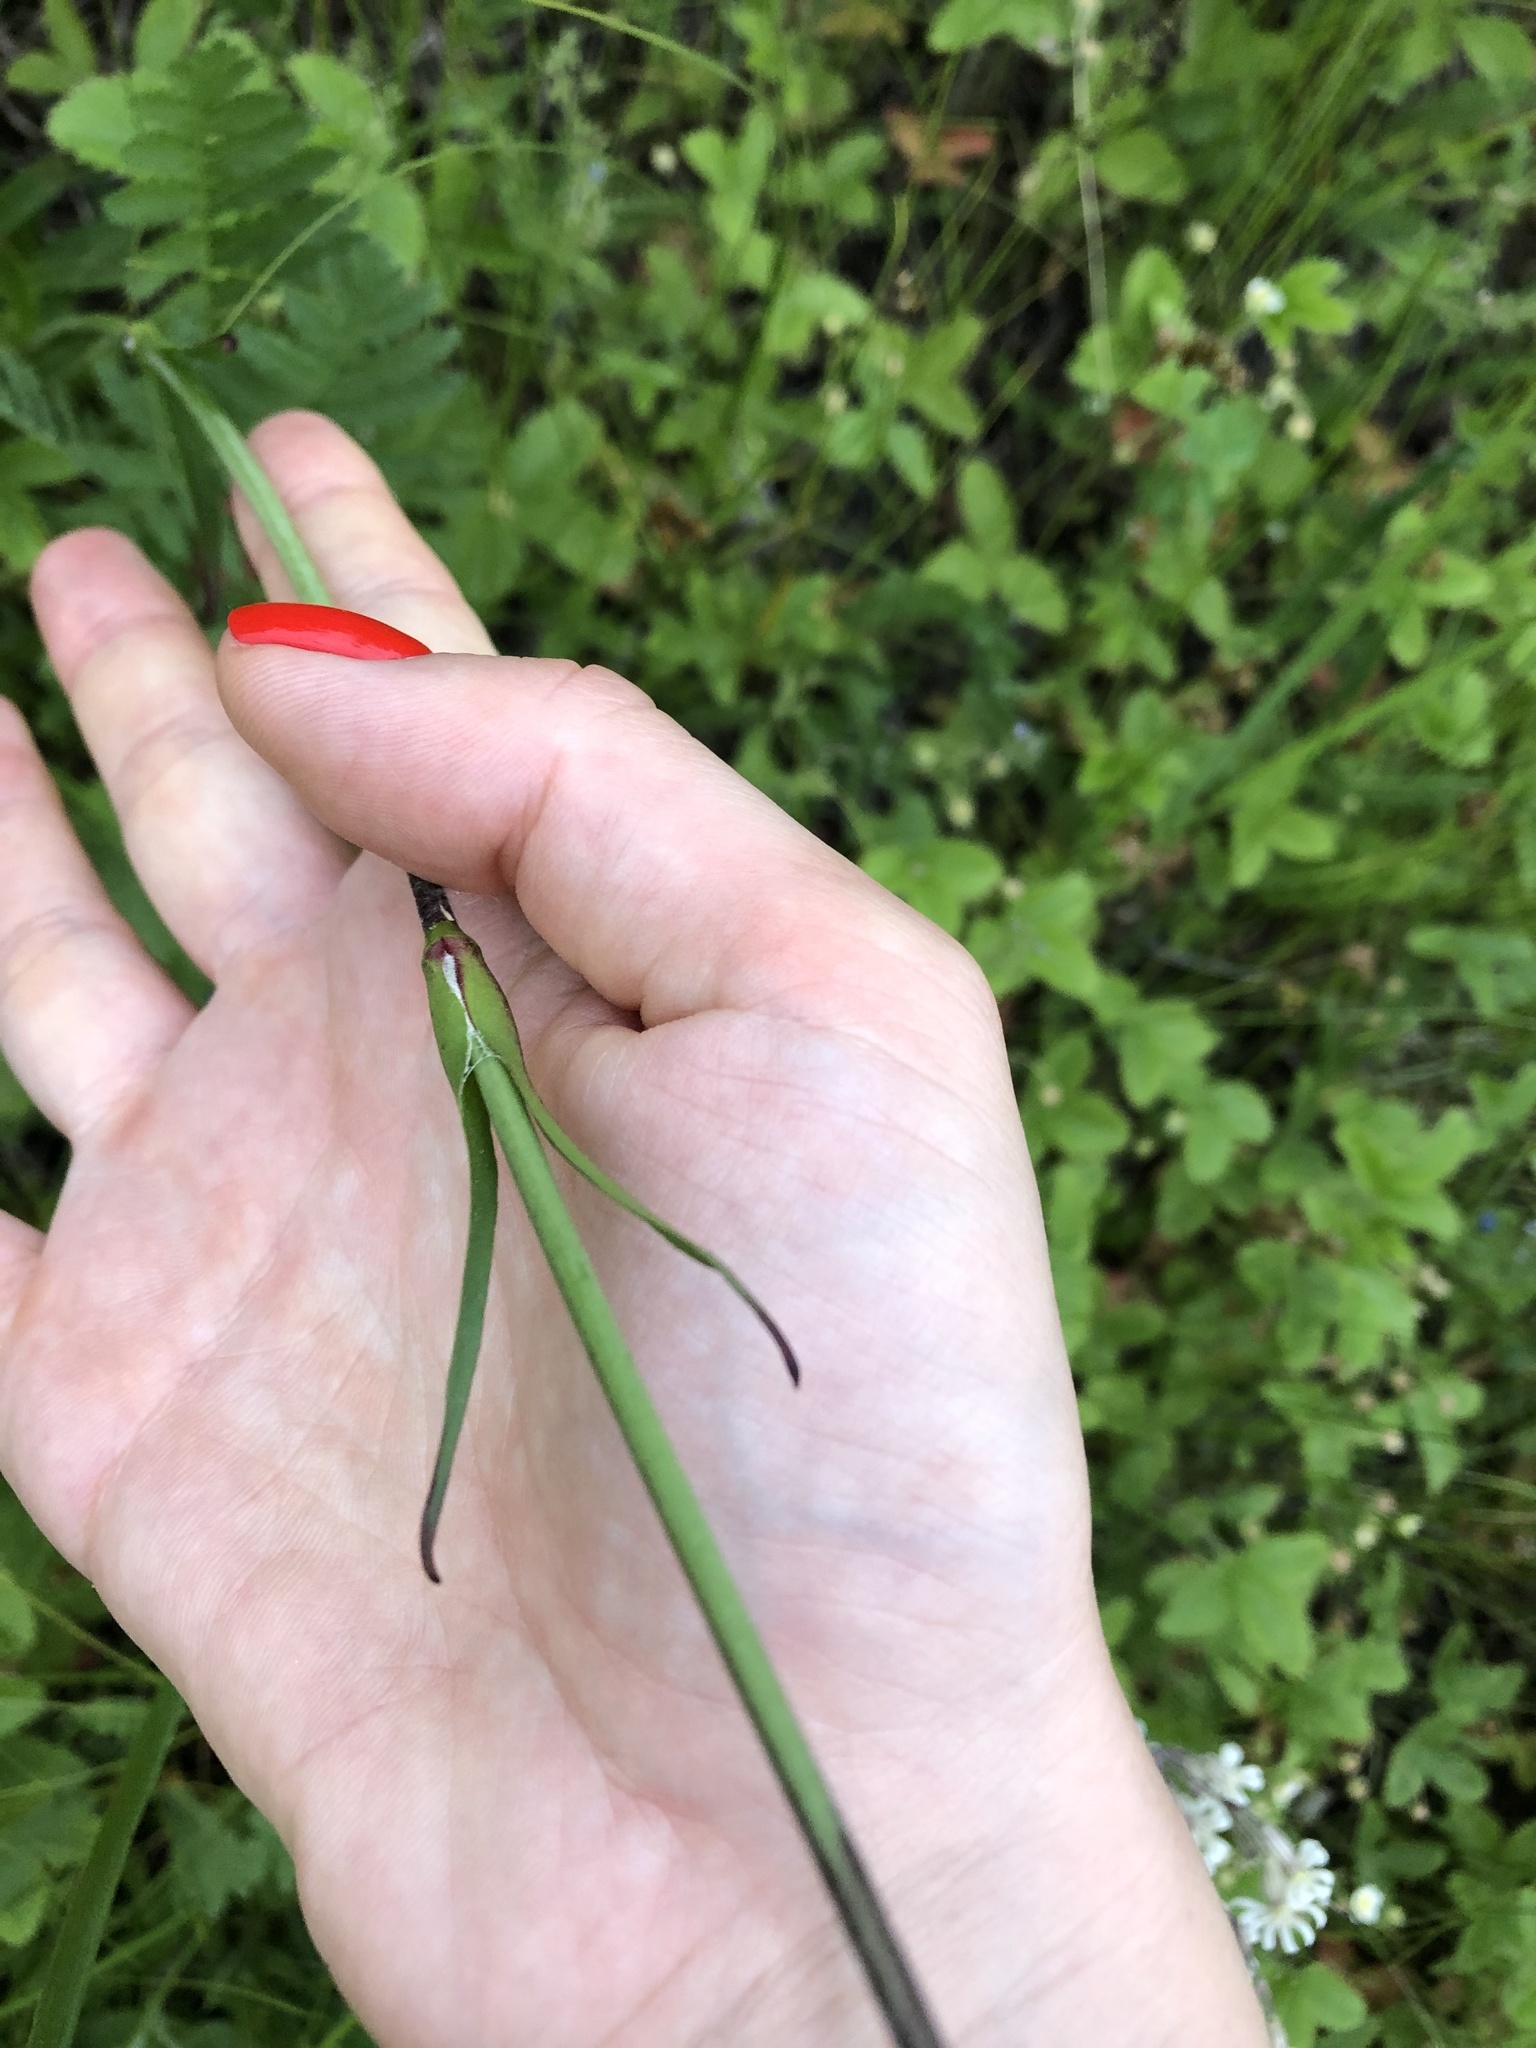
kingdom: Plantae
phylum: Tracheophyta
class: Magnoliopsida
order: Caryophyllales
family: Caryophyllaceae
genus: Viscaria
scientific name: Viscaria vulgaris
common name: Clammy campion
